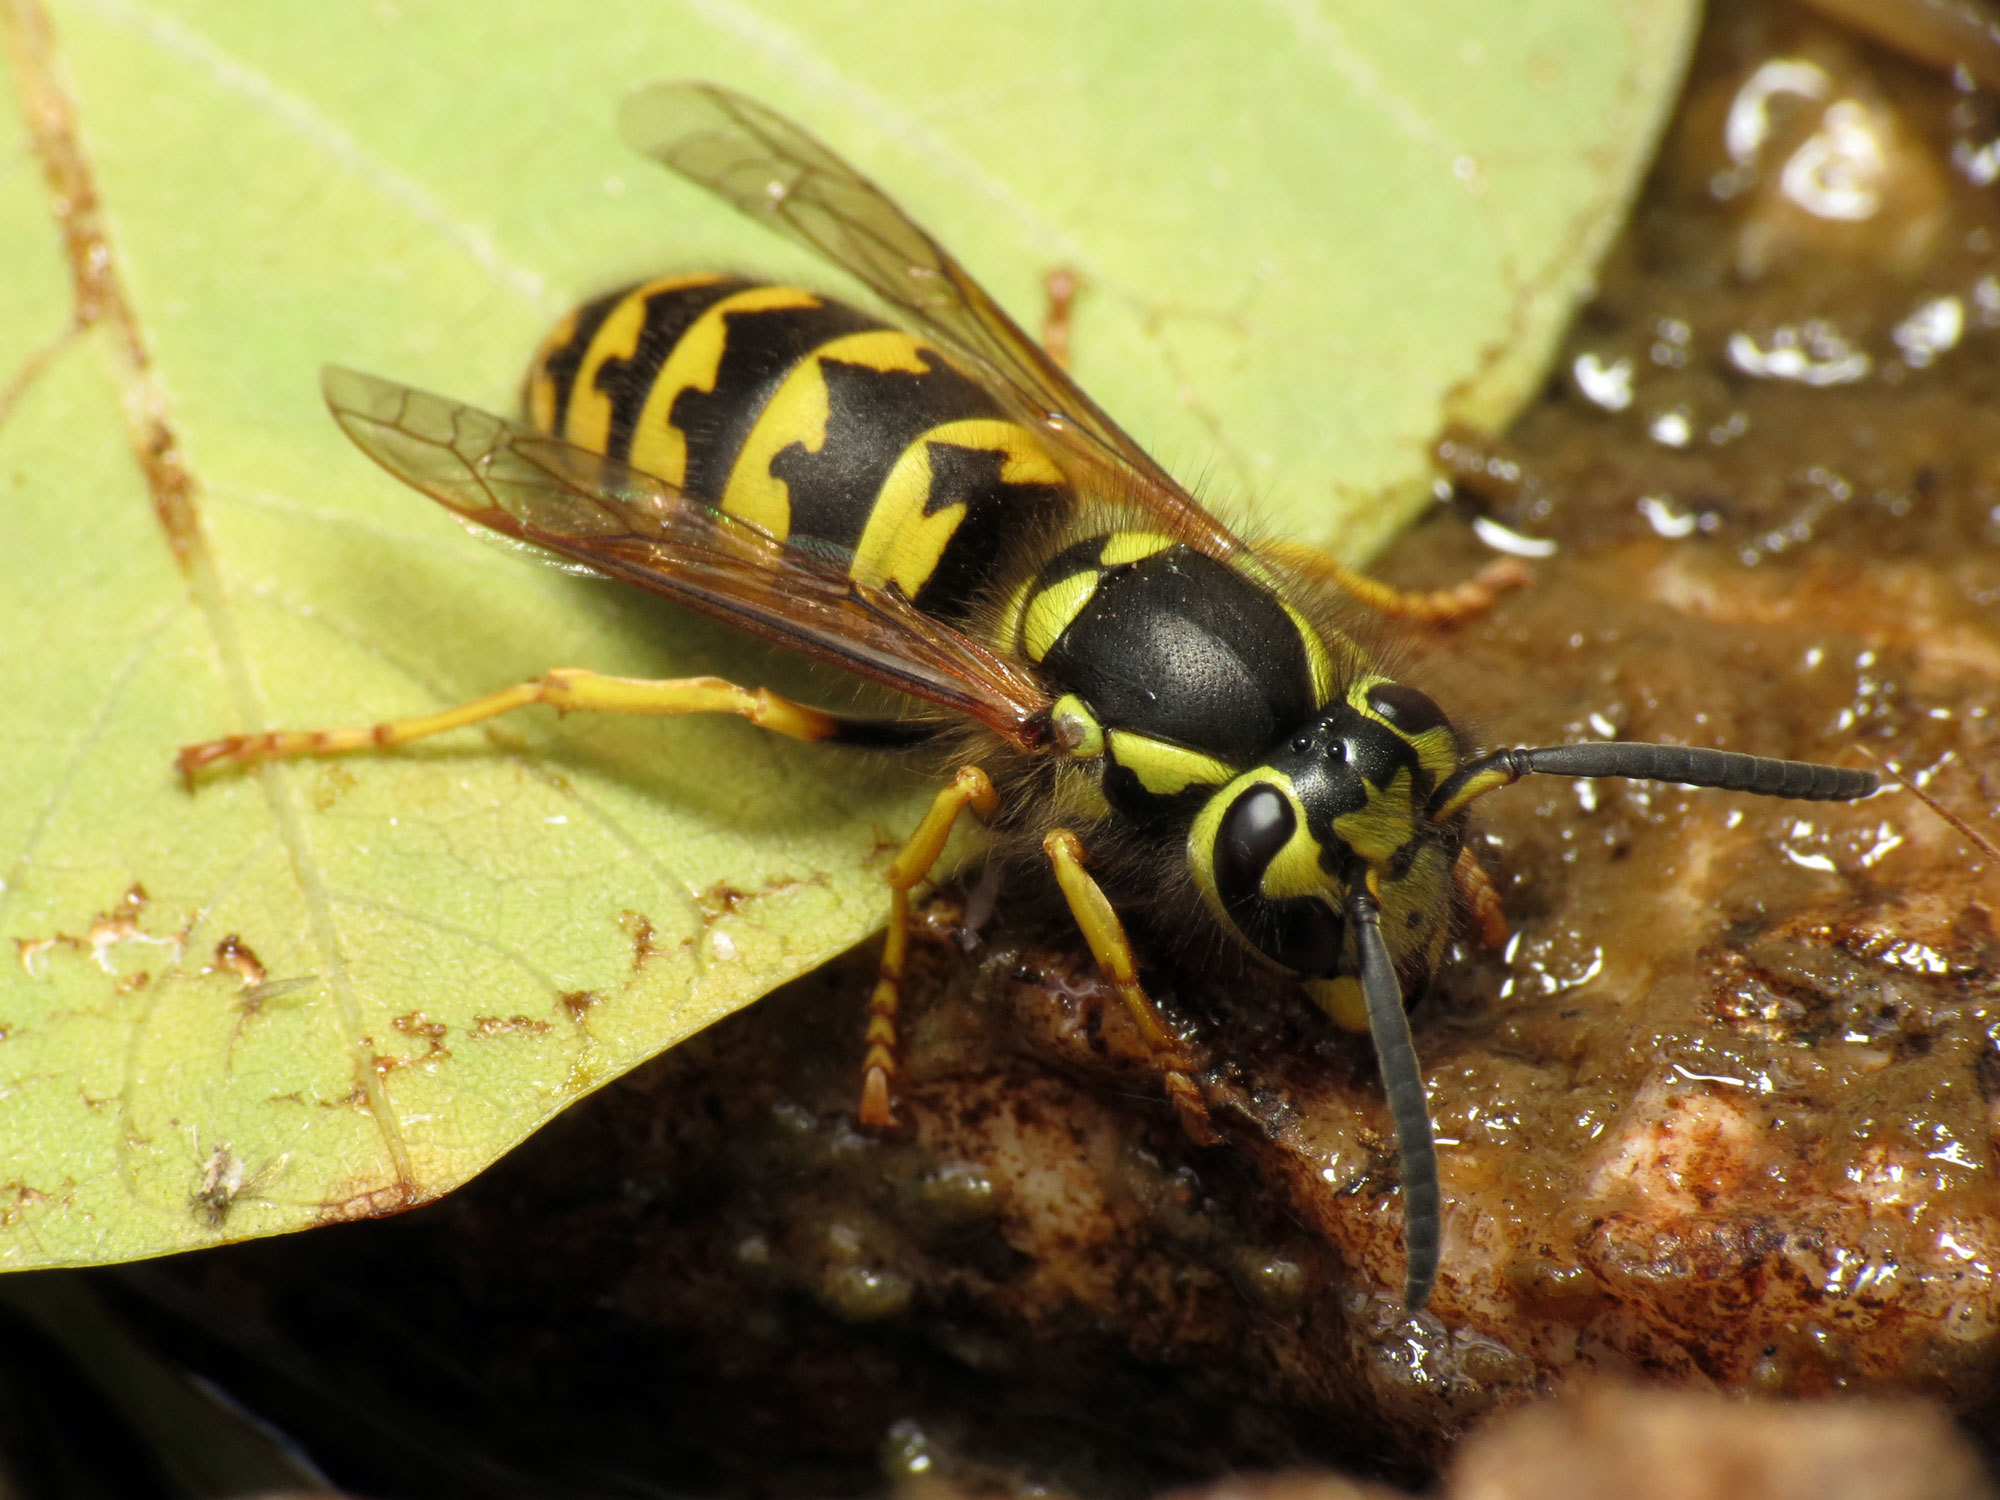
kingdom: Animalia
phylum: Arthropoda
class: Insecta
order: Hymenoptera
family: Vespidae
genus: Vespula
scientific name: Vespula pensylvanica
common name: Western yellowjacket
